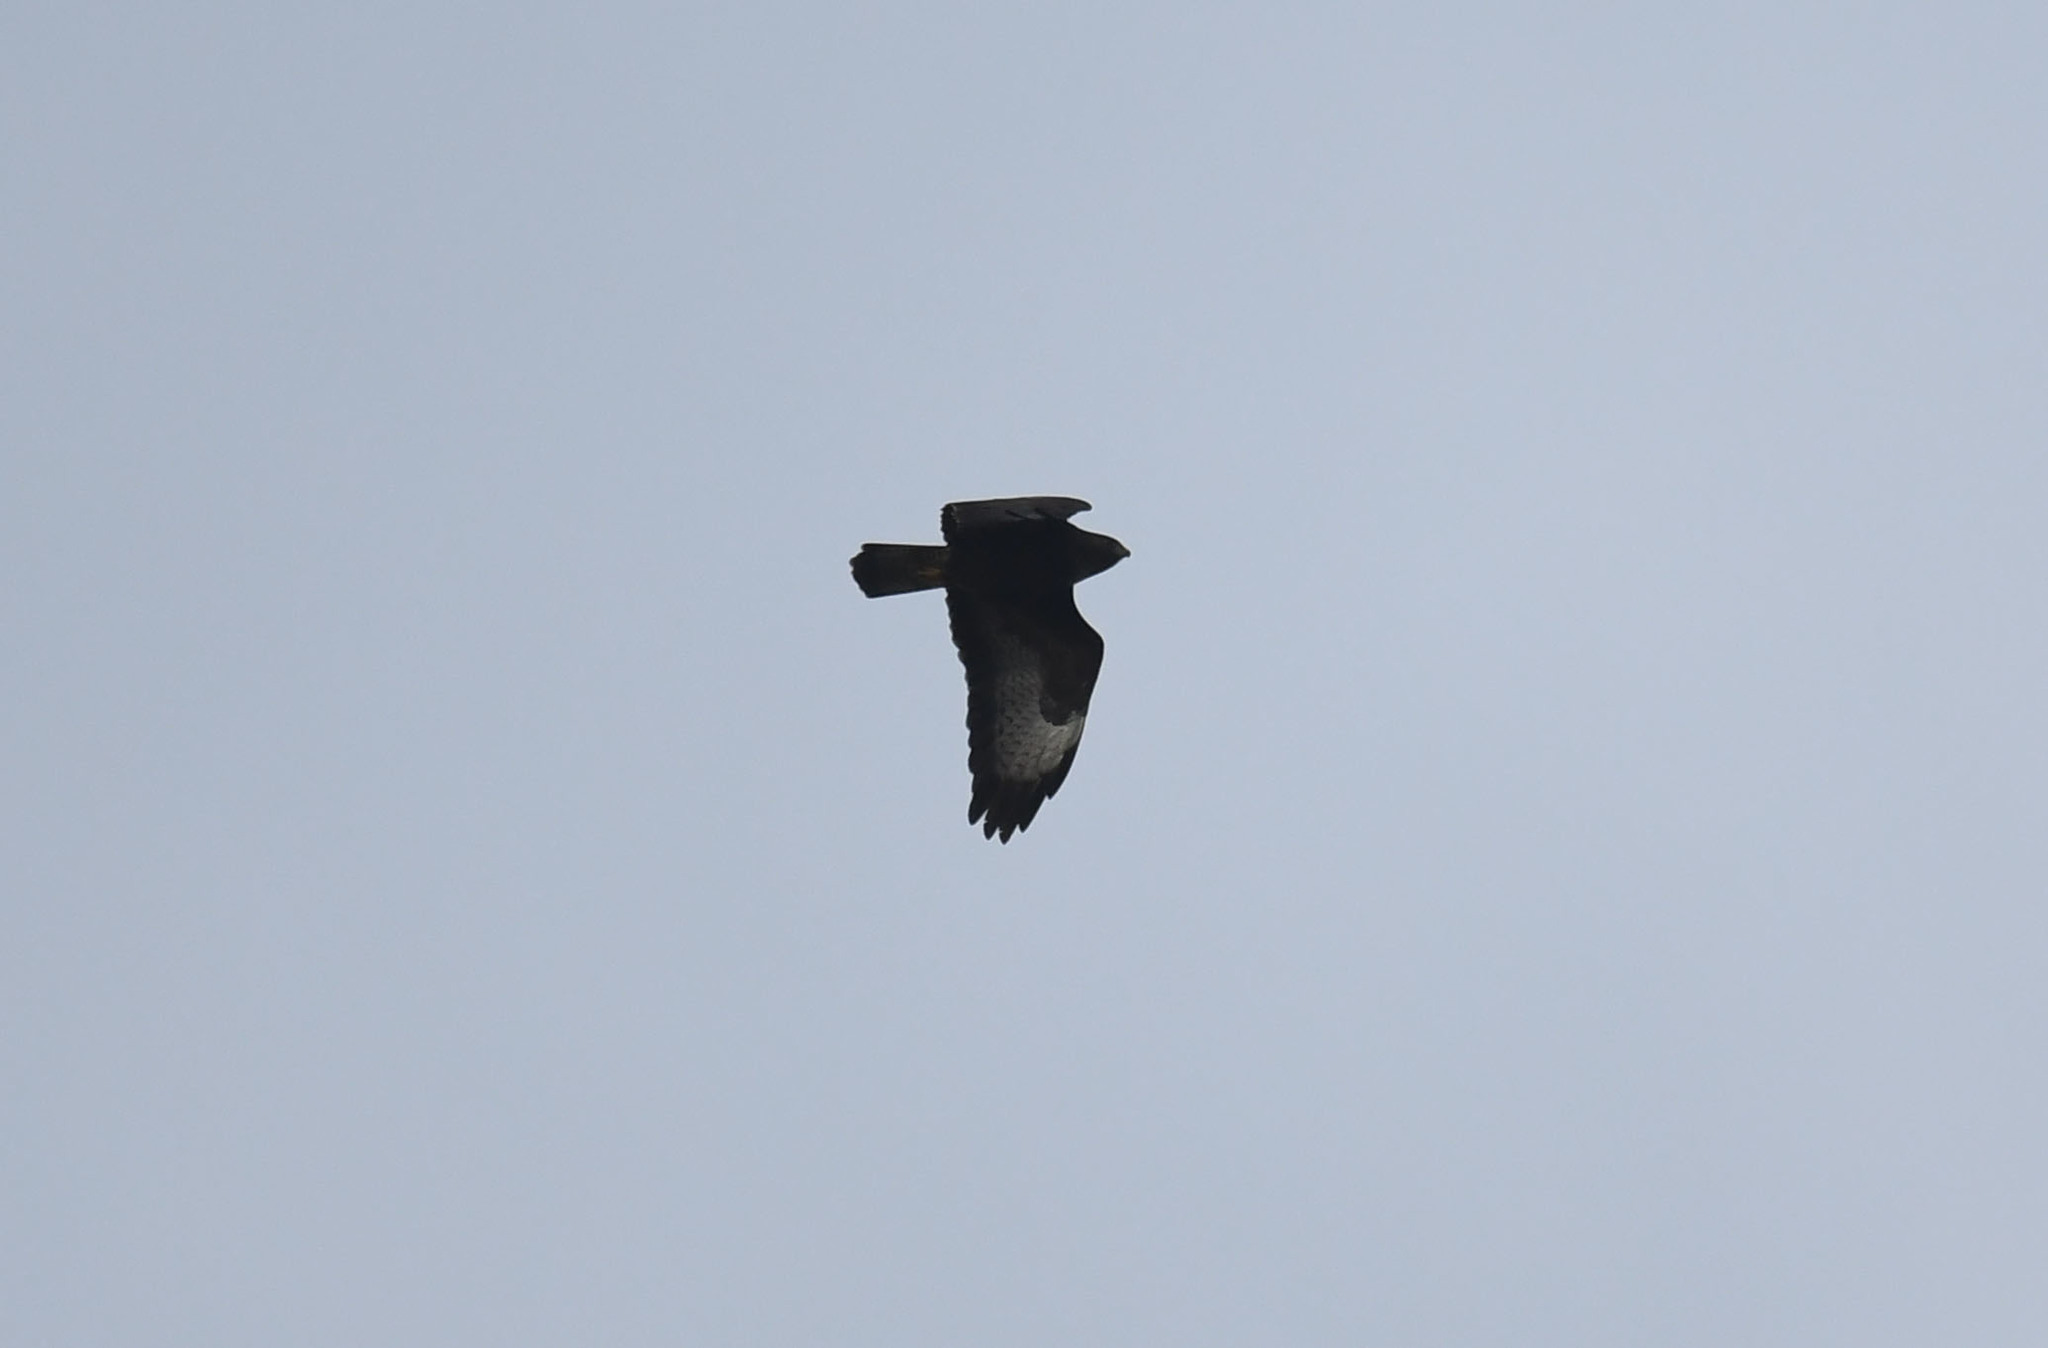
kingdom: Animalia
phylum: Chordata
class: Aves
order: Accipitriformes
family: Accipitridae
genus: Buteo
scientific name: Buteo buteo
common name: Common buzzard
